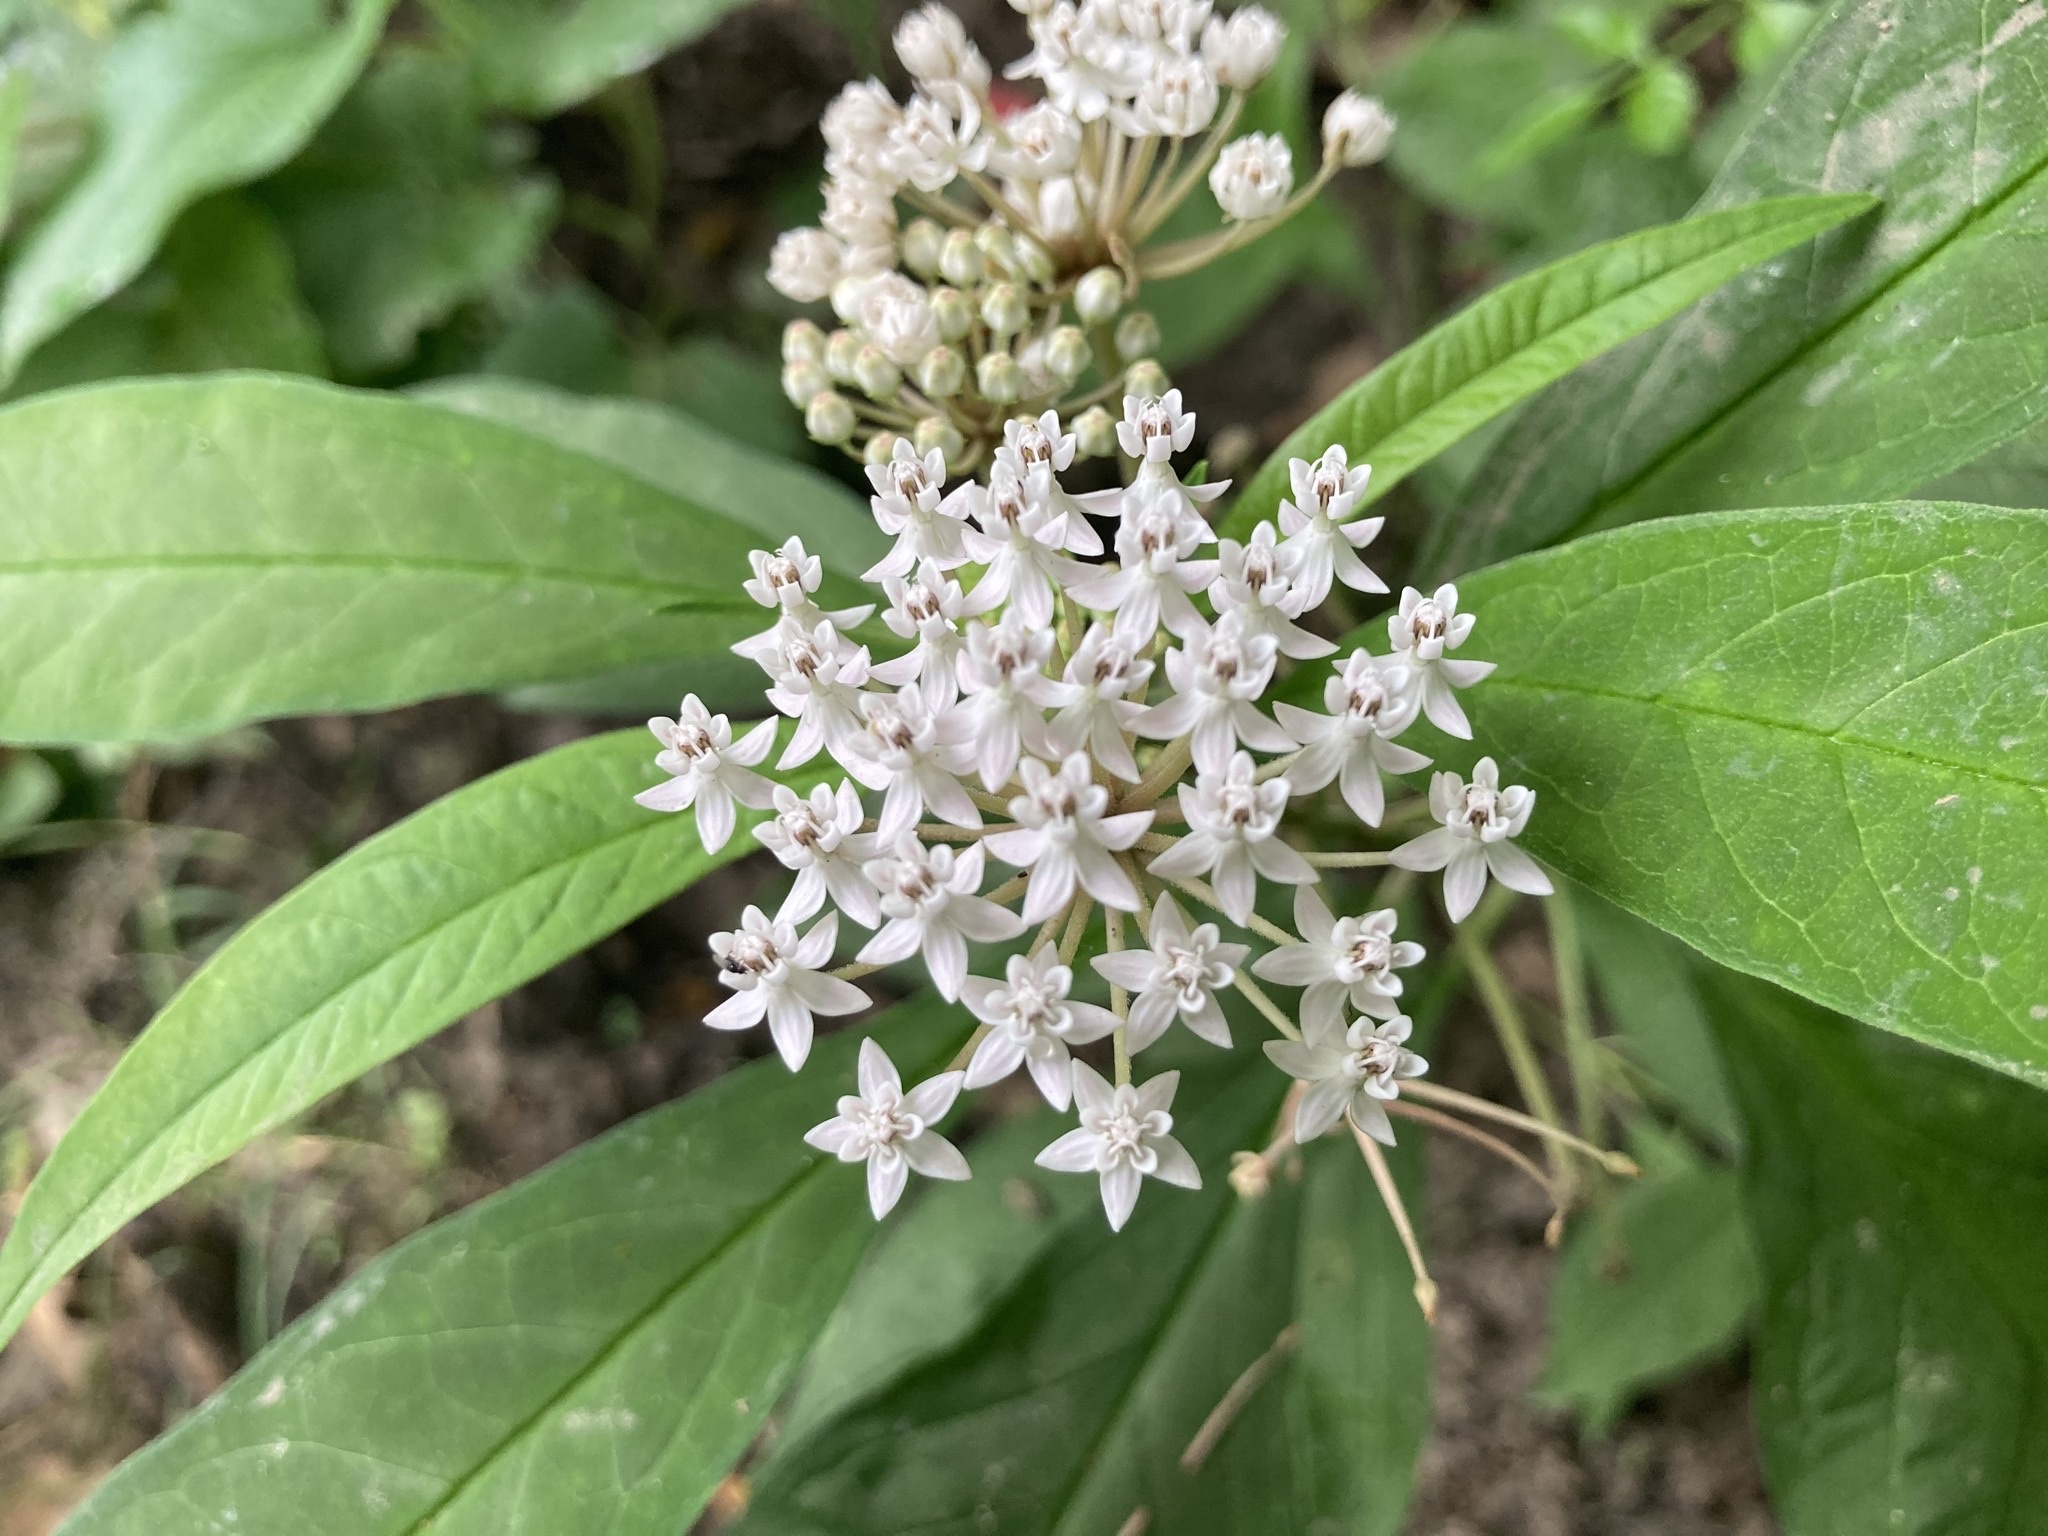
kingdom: Plantae
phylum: Tracheophyta
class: Magnoliopsida
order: Gentianales
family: Apocynaceae
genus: Asclepias
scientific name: Asclepias perennis
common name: Smooth-seed milkweed
